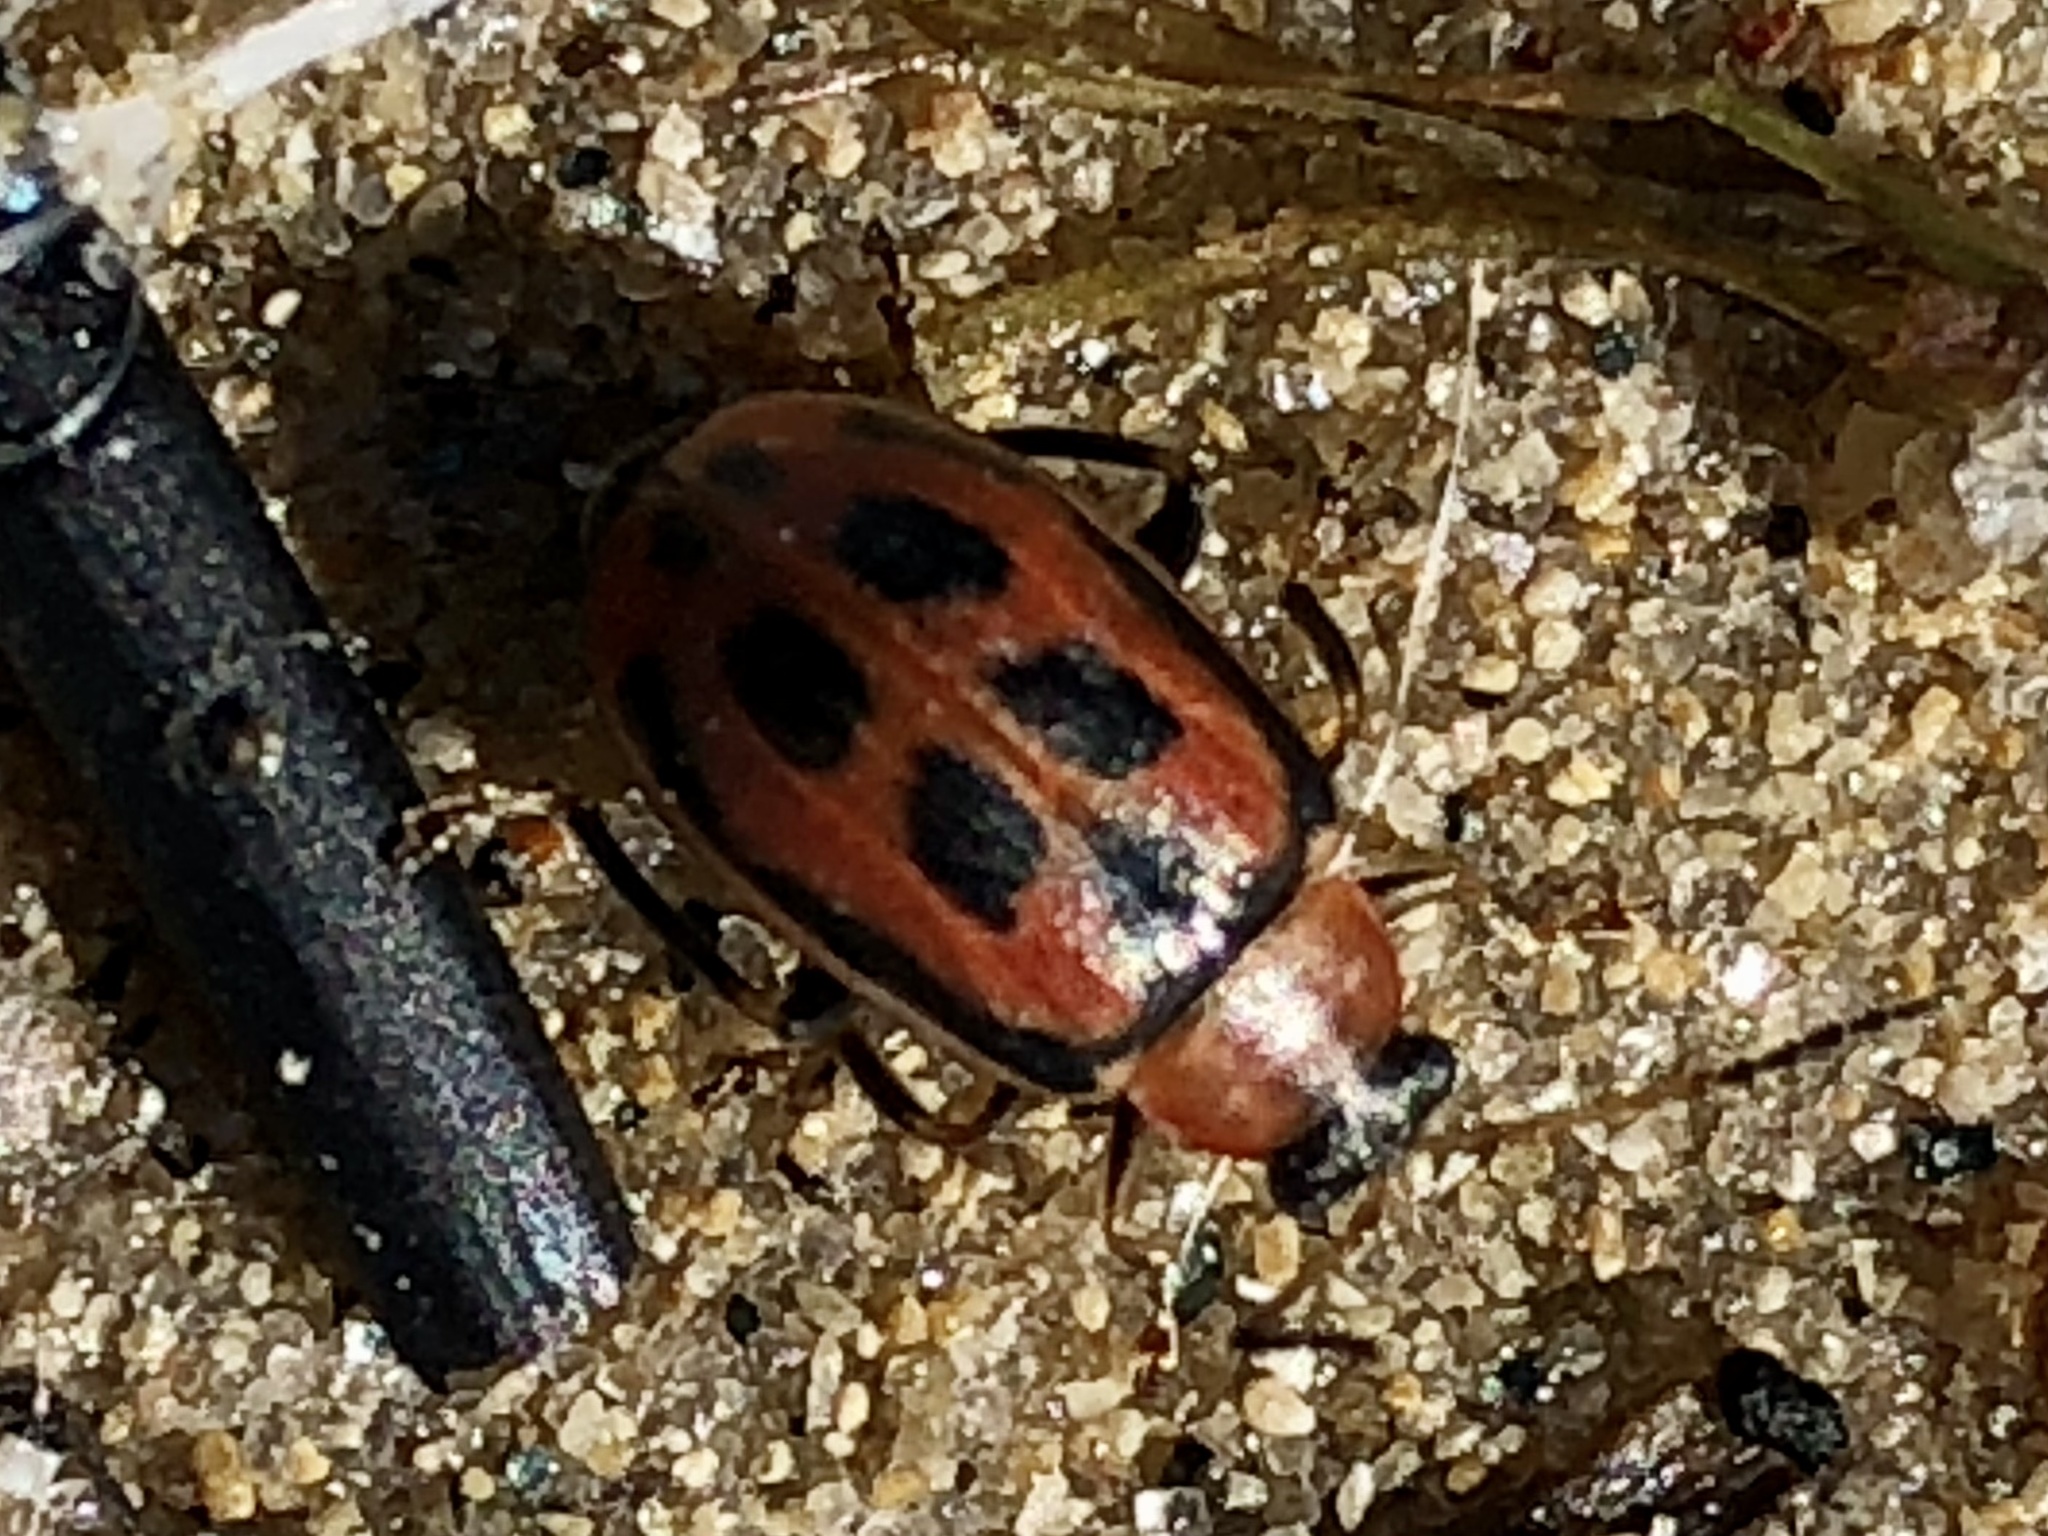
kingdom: Animalia
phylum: Arthropoda
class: Insecta
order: Coleoptera
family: Chrysomelidae
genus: Cerotoma
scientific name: Cerotoma trifurcata
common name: Bean leaf beetle
